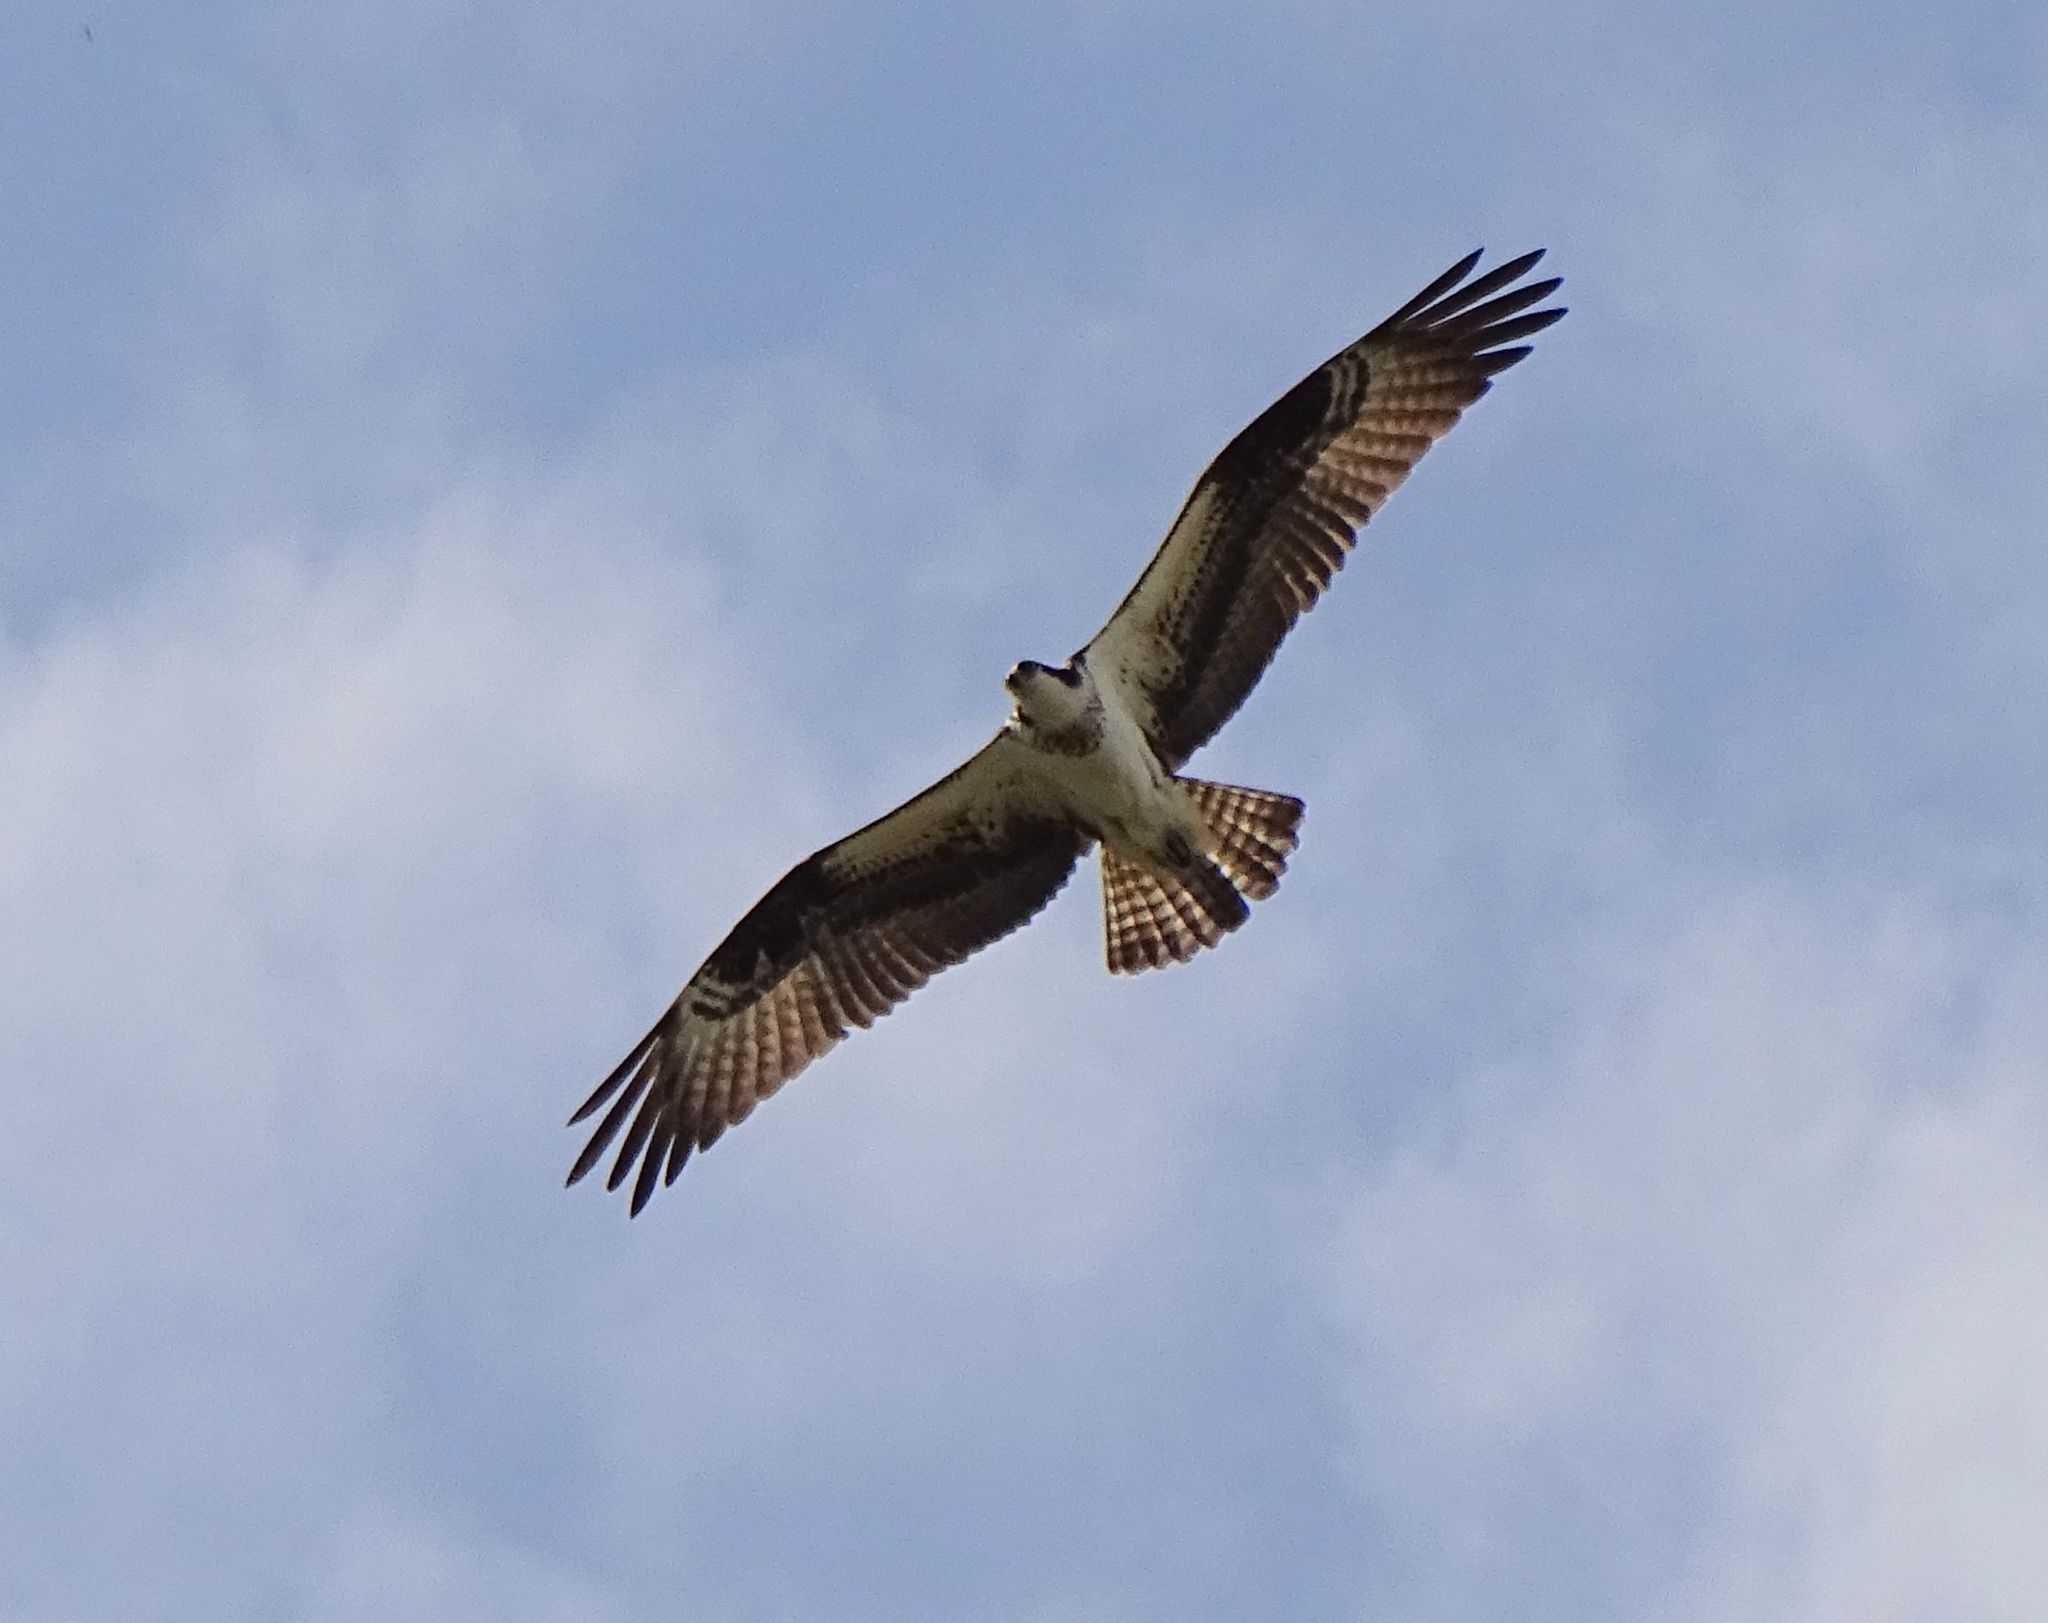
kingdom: Animalia
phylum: Chordata
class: Aves
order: Accipitriformes
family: Pandionidae
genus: Pandion
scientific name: Pandion haliaetus
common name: Osprey
